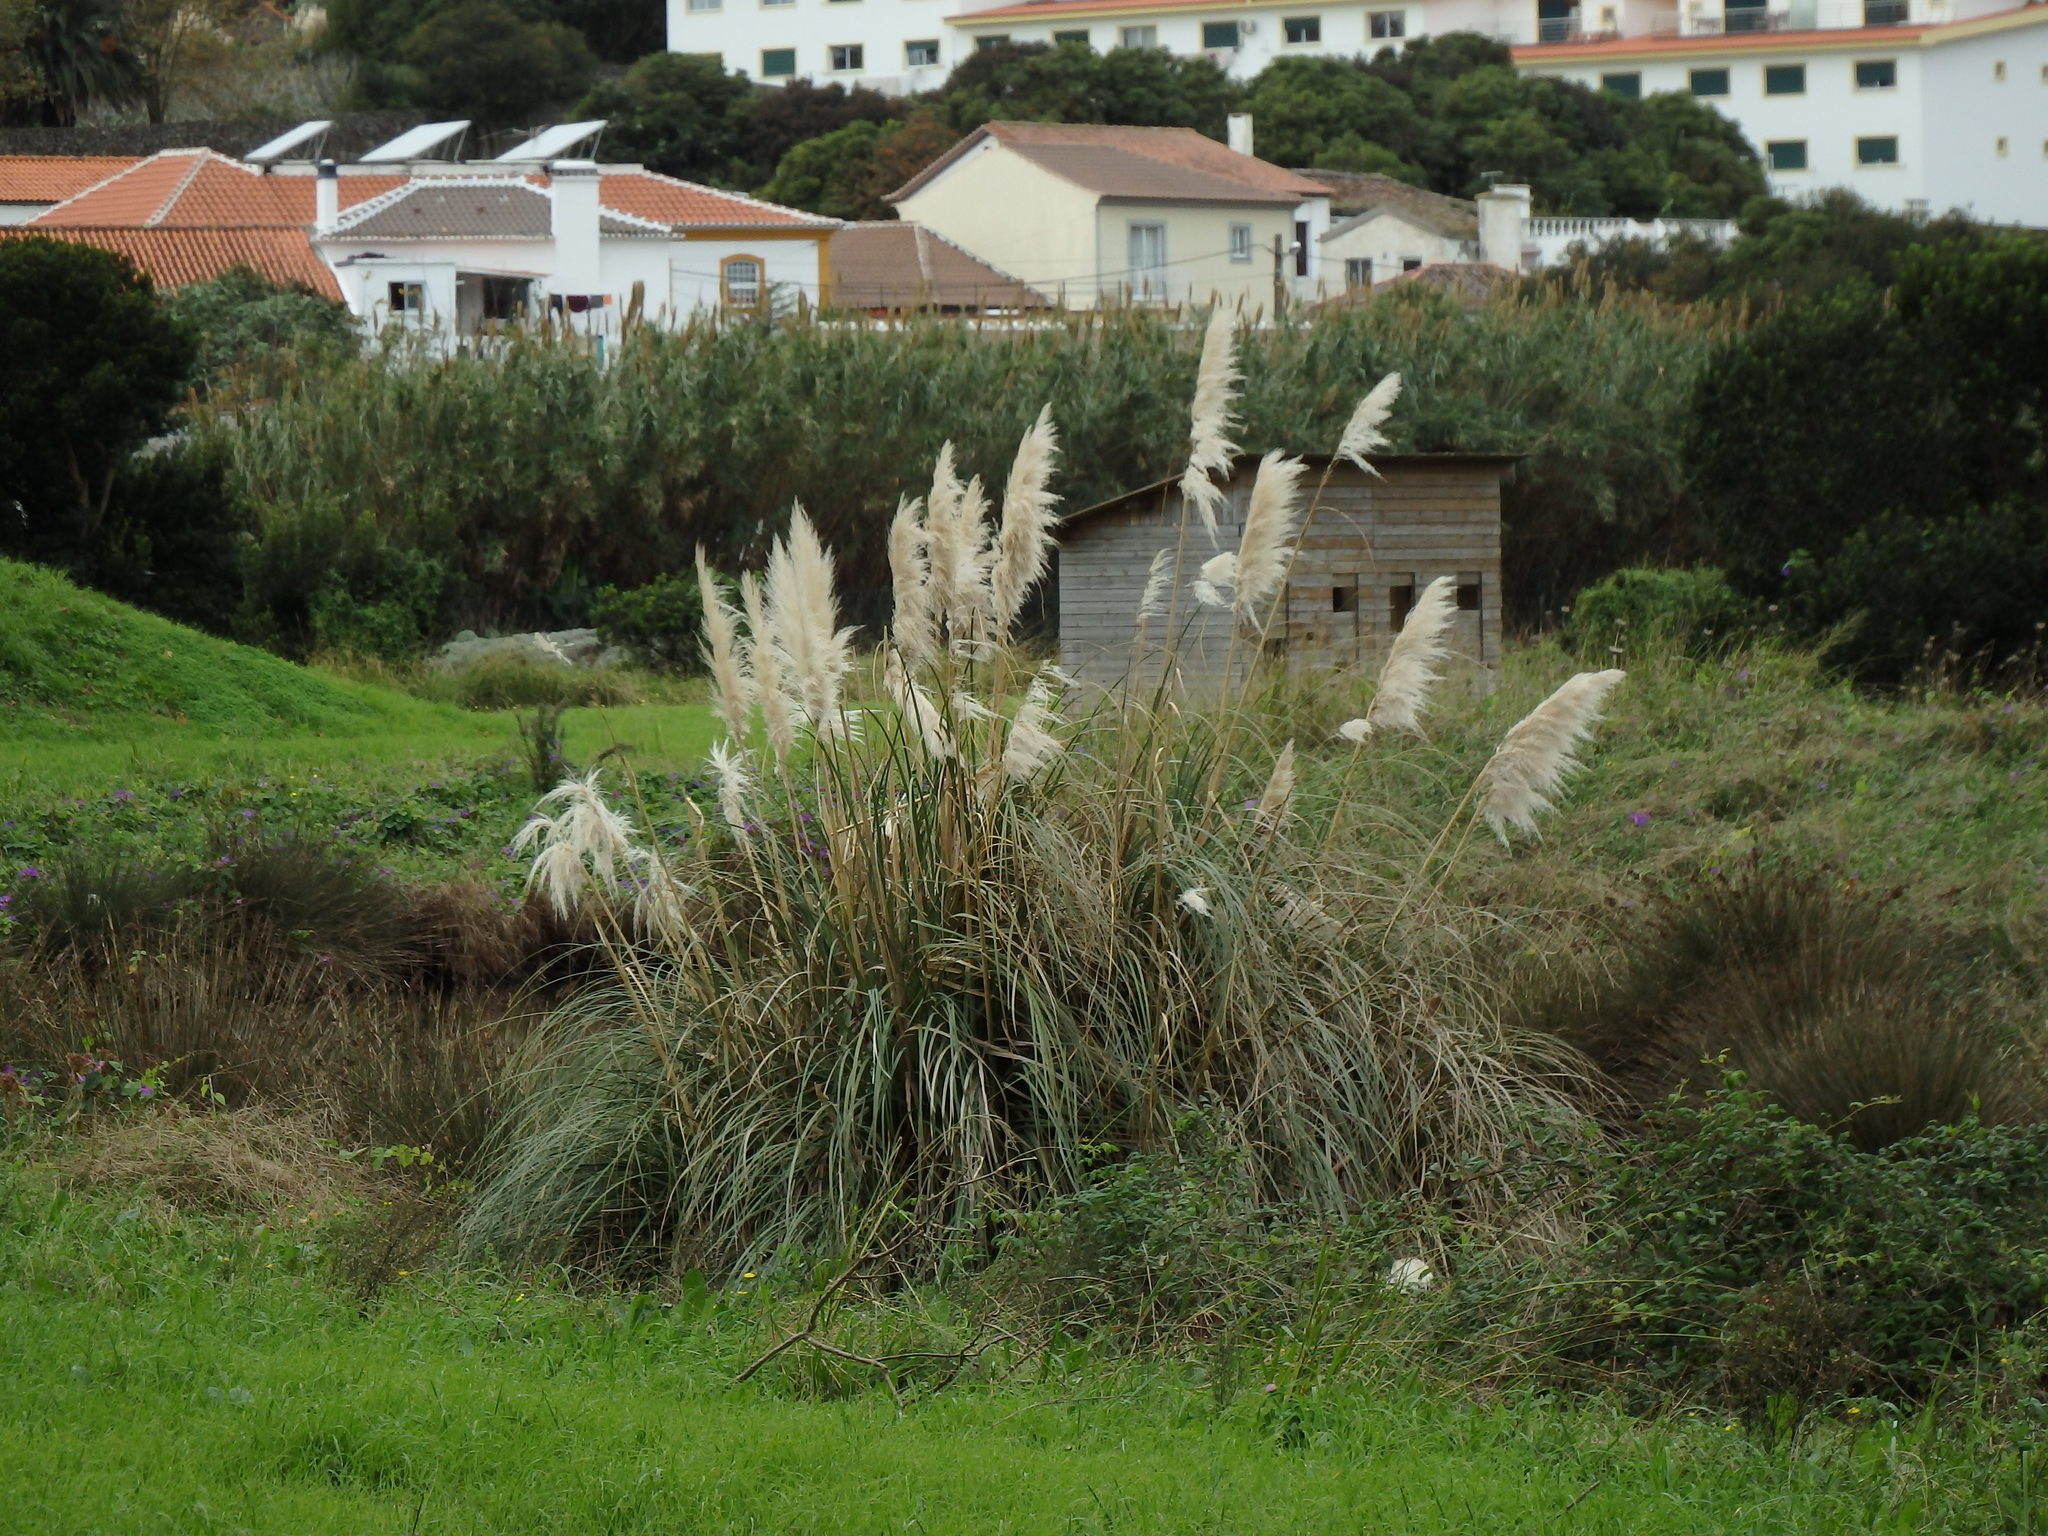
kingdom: Plantae
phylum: Tracheophyta
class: Liliopsida
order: Poales
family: Poaceae
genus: Cortaderia
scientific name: Cortaderia selloana
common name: Uruguayan pampas grass
